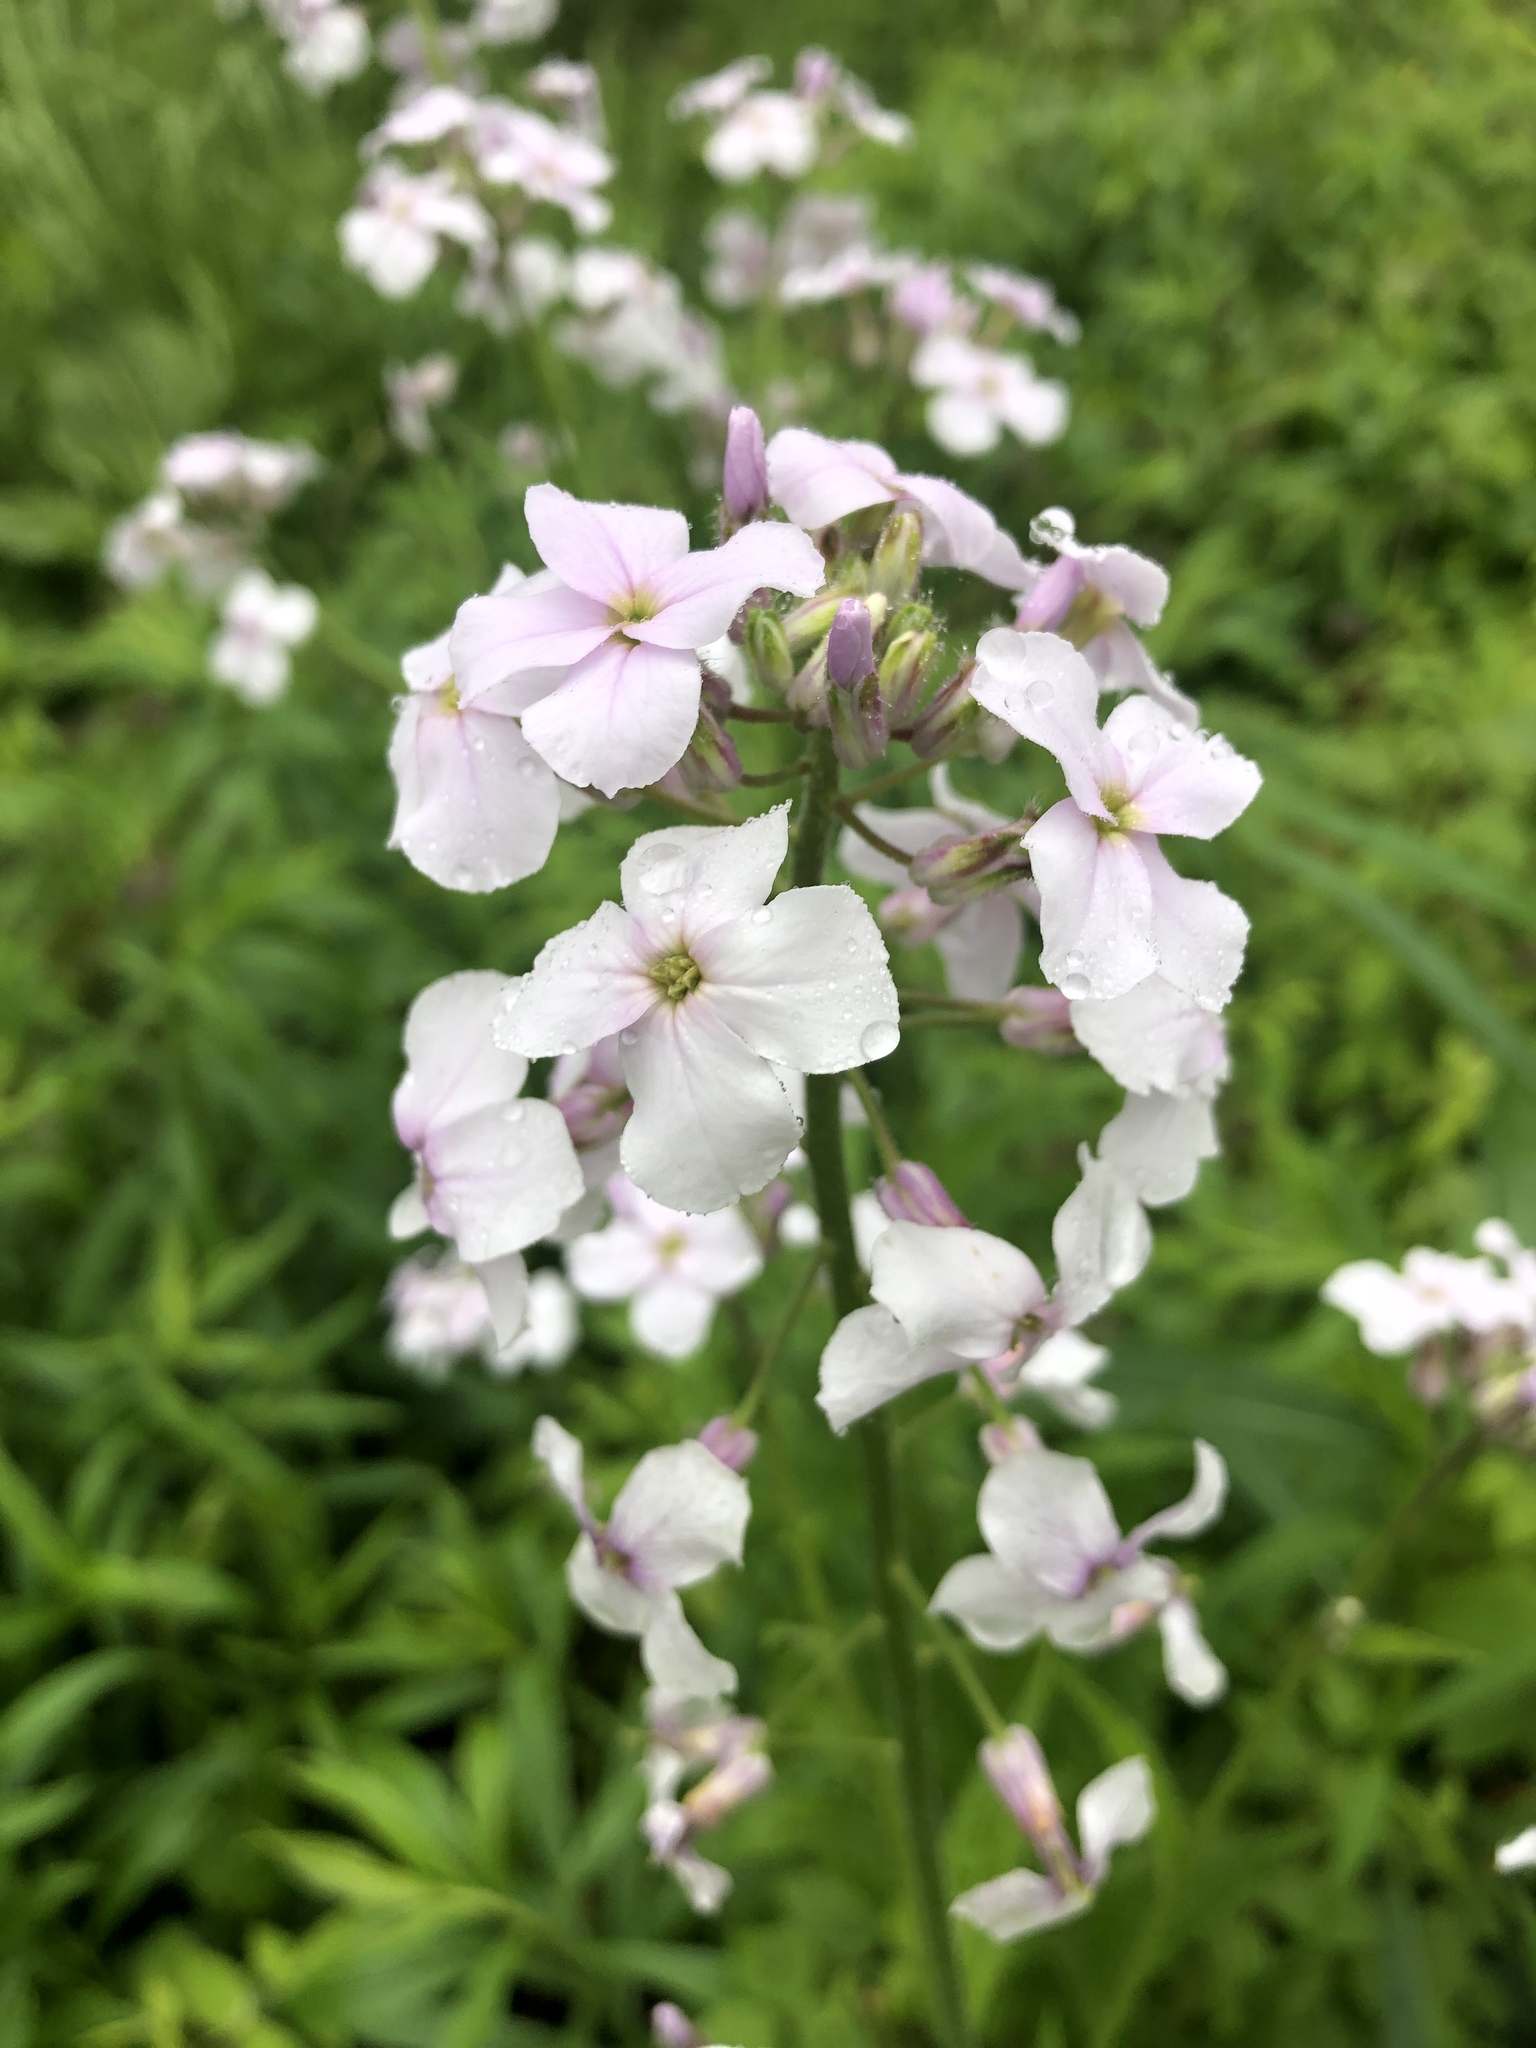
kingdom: Plantae
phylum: Tracheophyta
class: Magnoliopsida
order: Brassicales
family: Brassicaceae
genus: Hesperis
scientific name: Hesperis matronalis
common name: Dame's-violet
